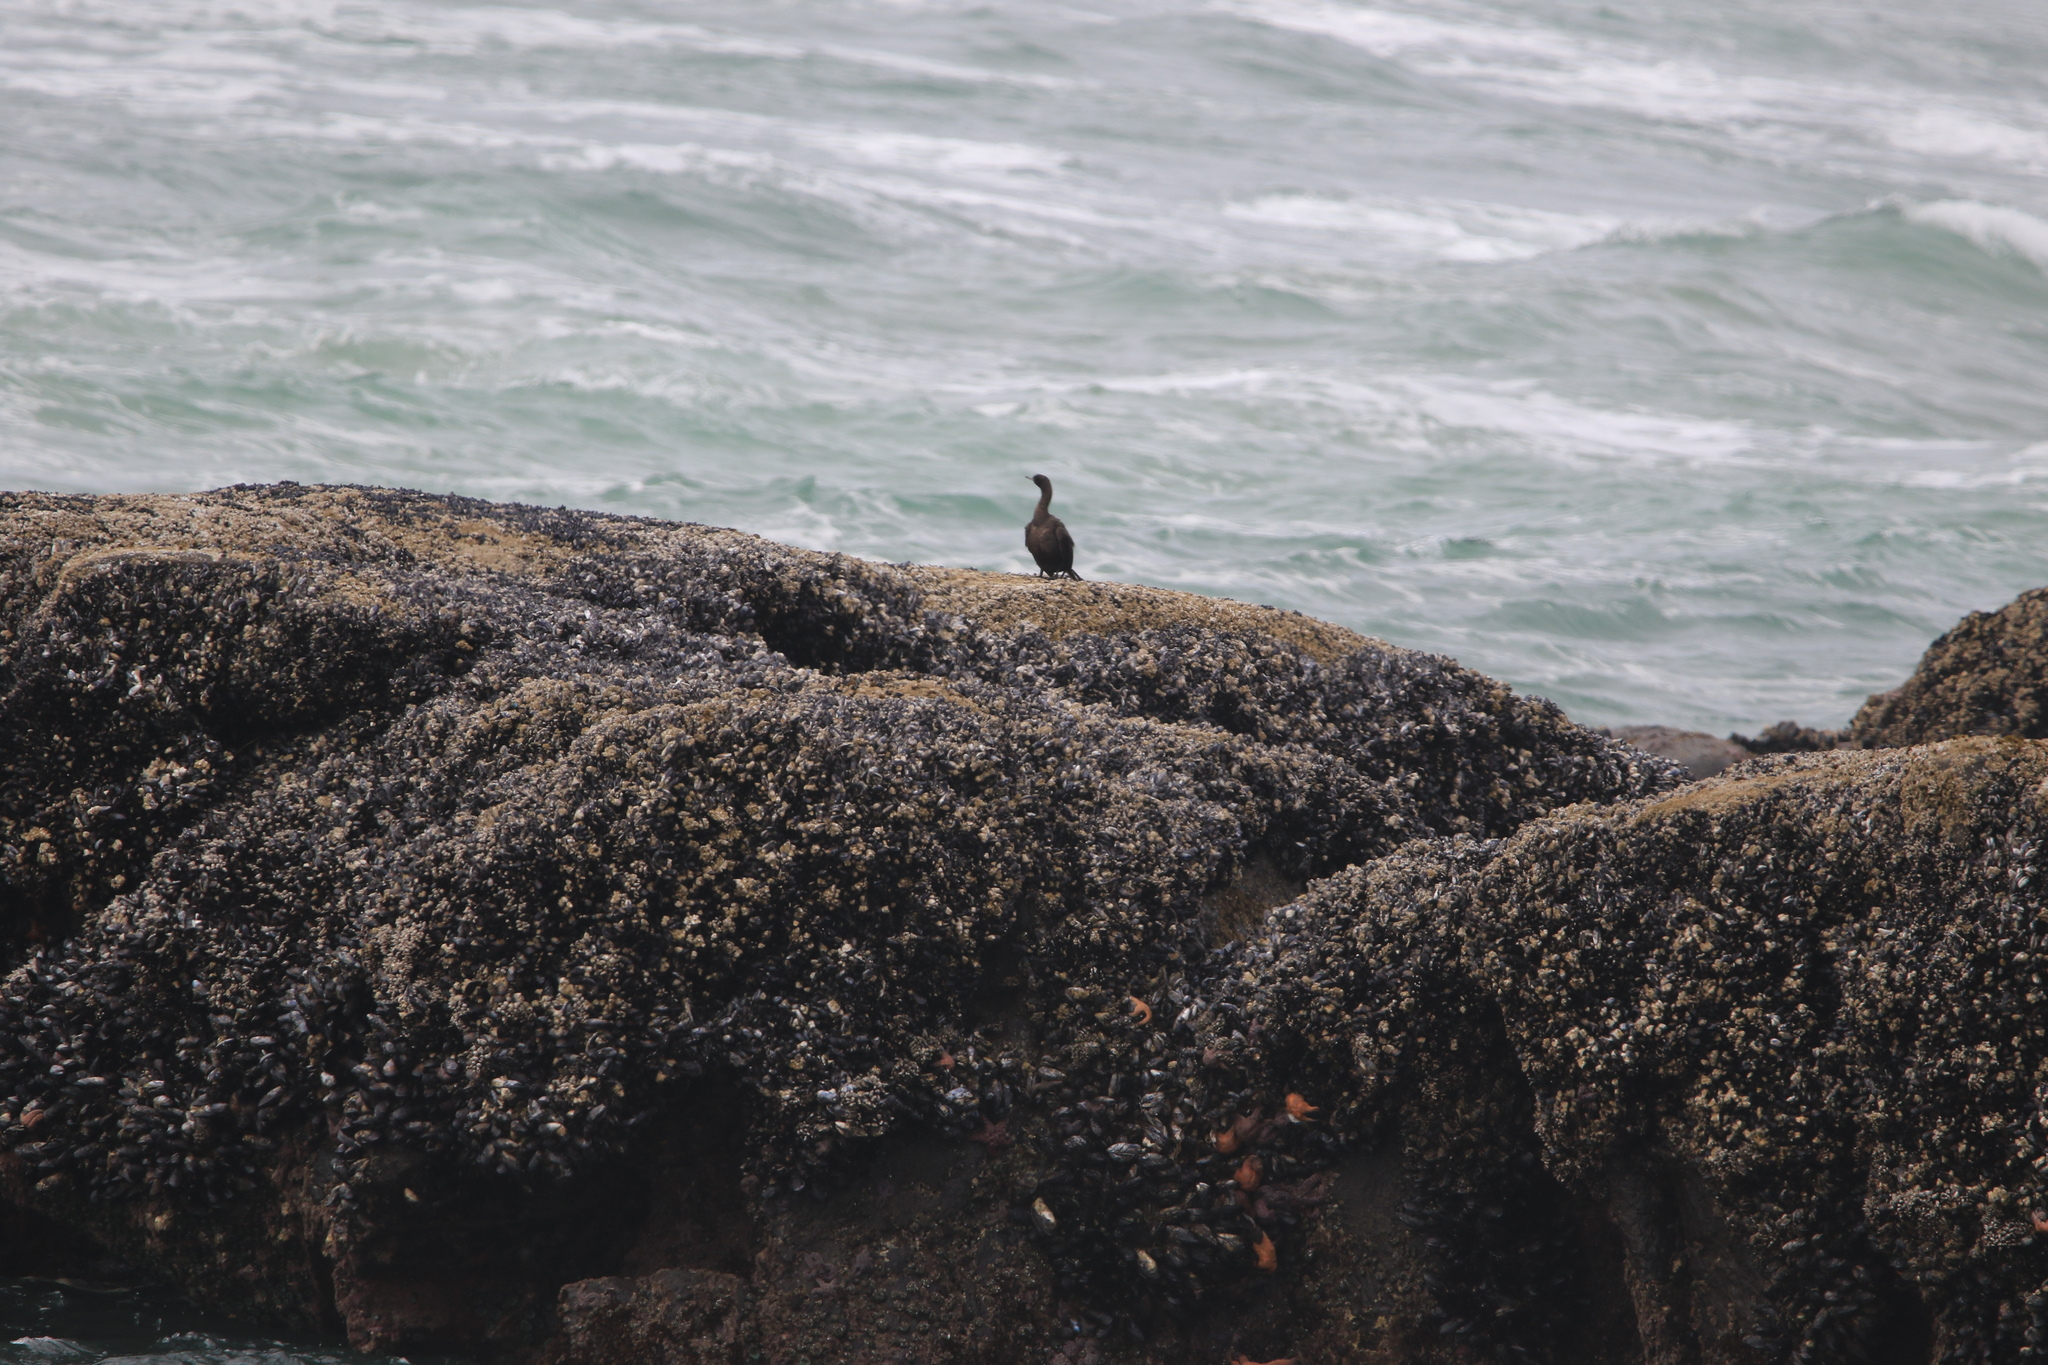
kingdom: Animalia
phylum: Chordata
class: Aves
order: Suliformes
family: Phalacrocoracidae
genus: Phalacrocorax
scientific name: Phalacrocorax pelagicus
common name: Pelagic cormorant
